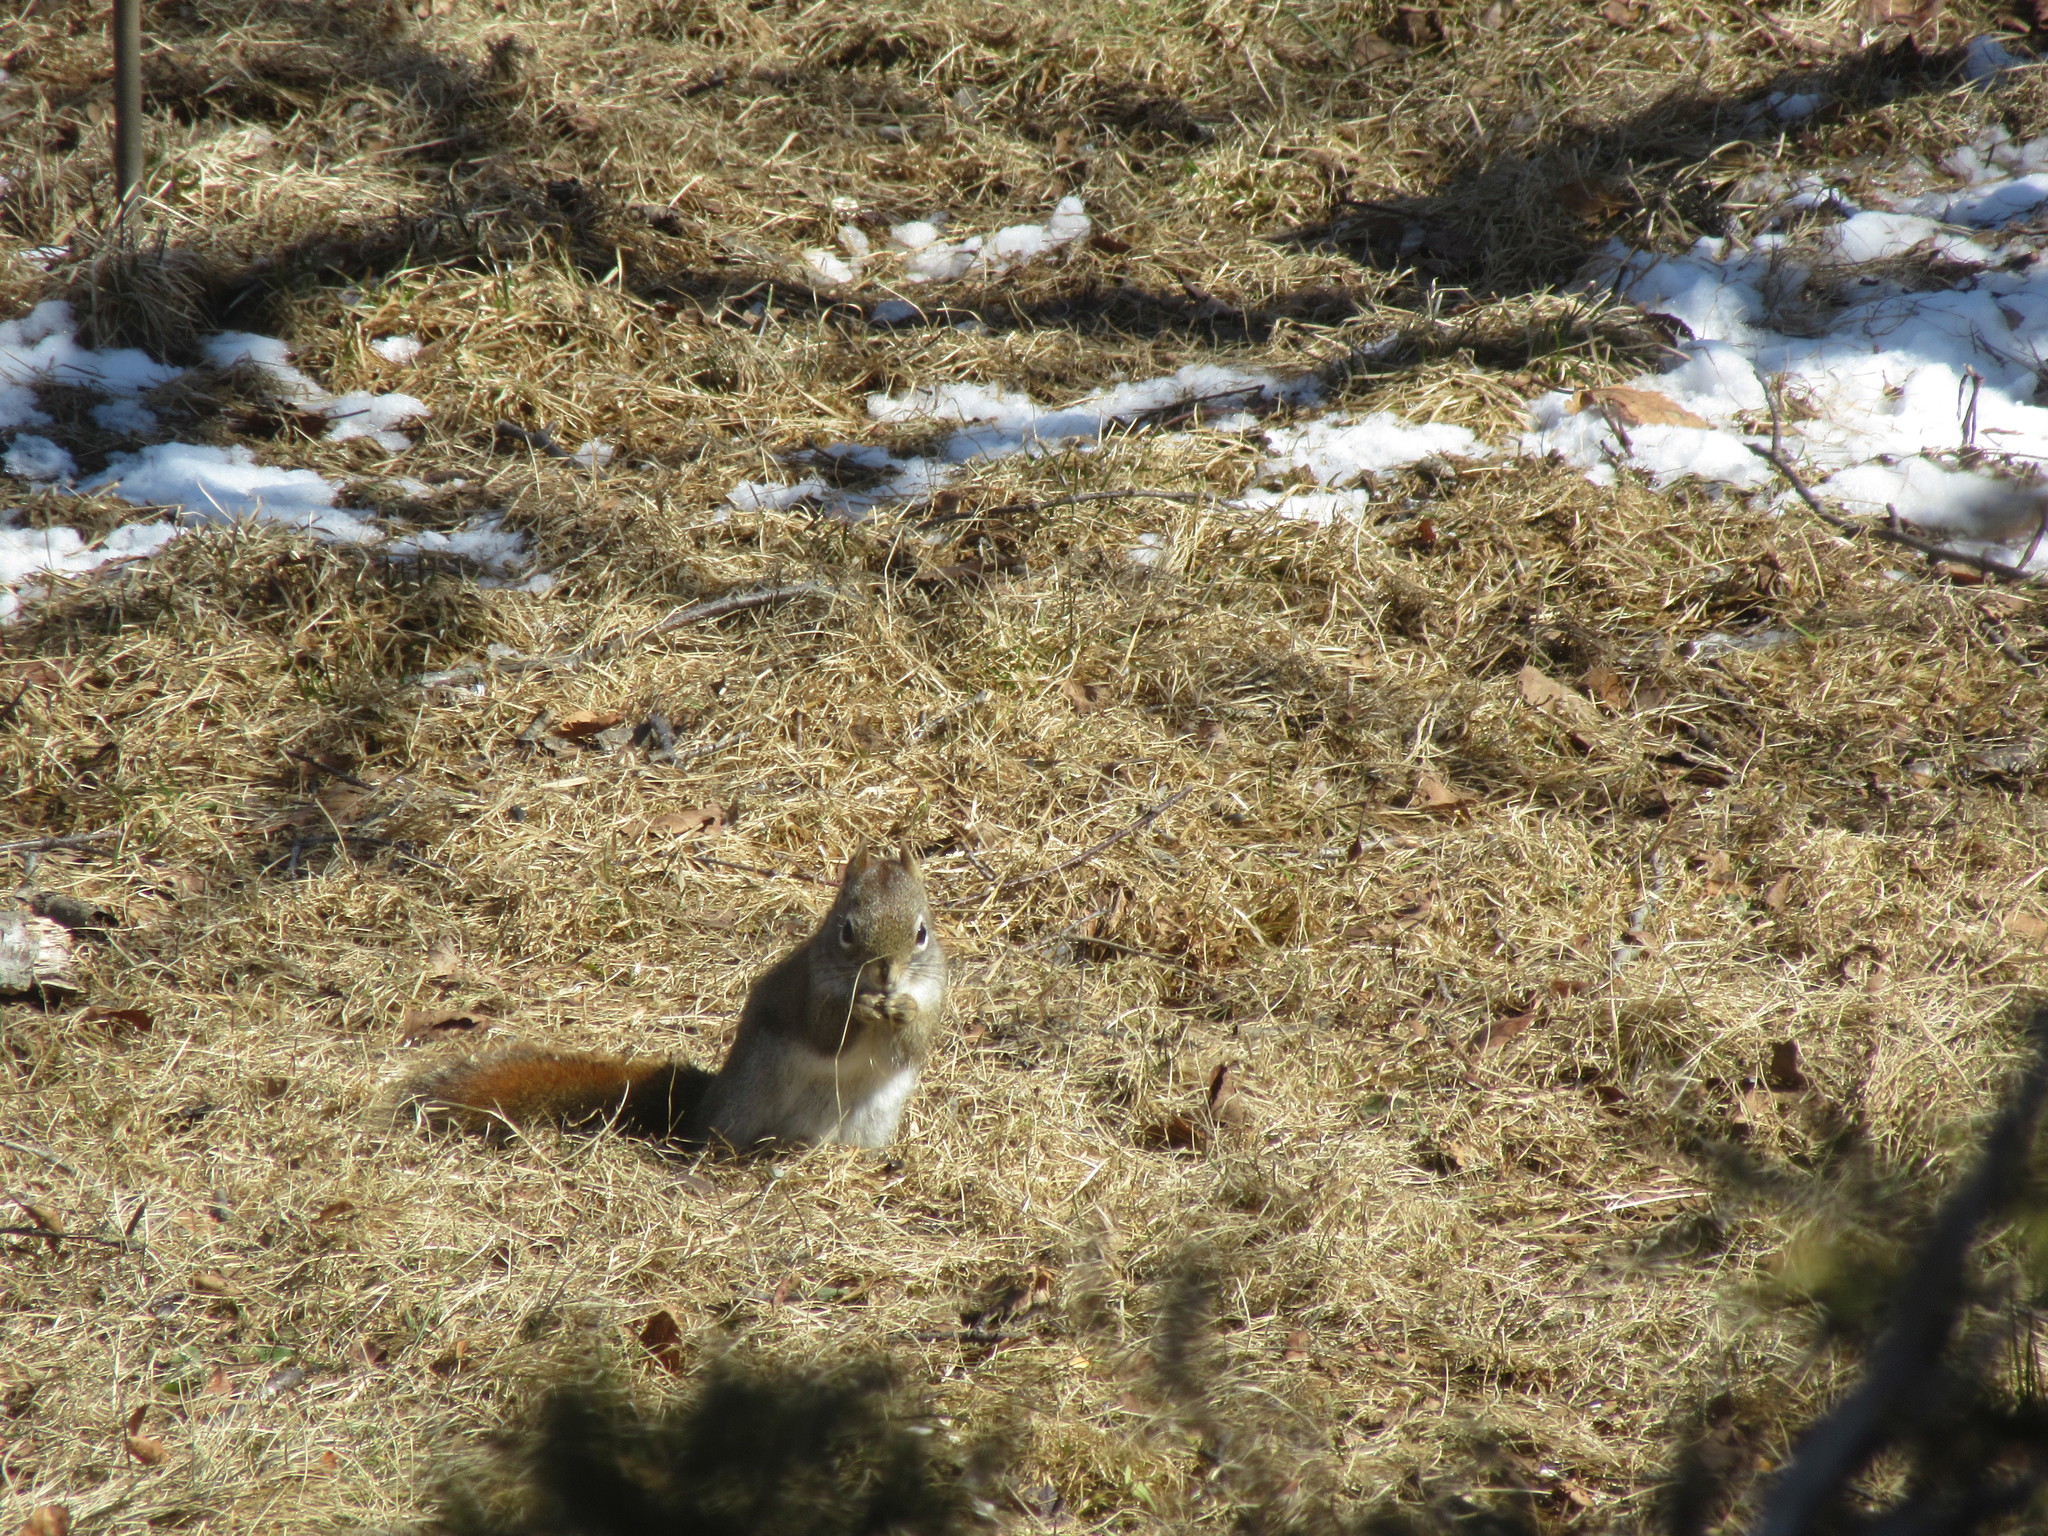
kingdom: Animalia
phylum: Chordata
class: Mammalia
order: Rodentia
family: Sciuridae
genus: Tamiasciurus
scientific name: Tamiasciurus hudsonicus
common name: Red squirrel
